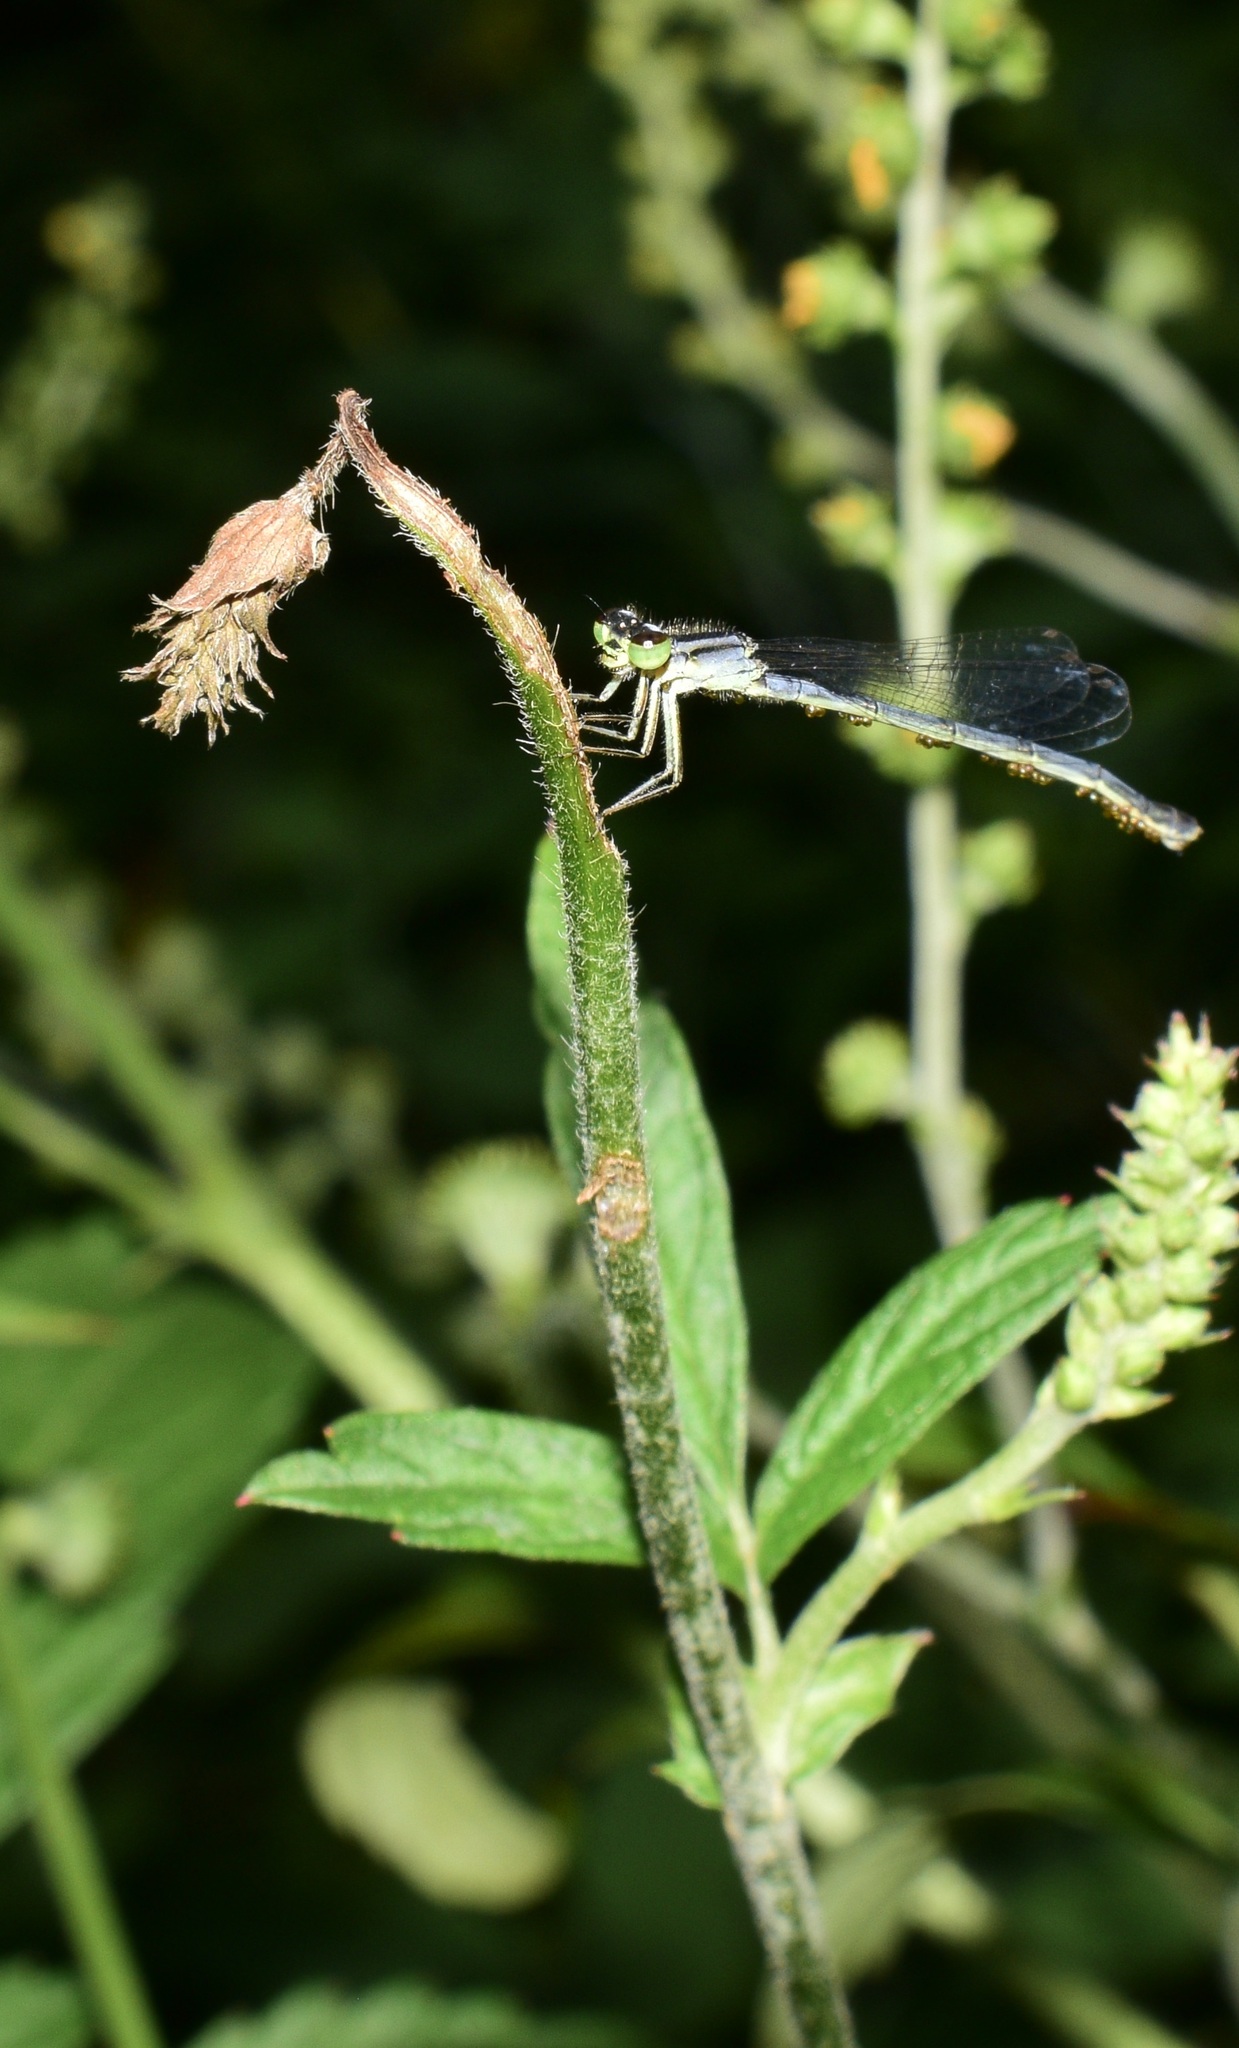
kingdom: Animalia
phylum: Arthropoda
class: Insecta
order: Odonata
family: Coenagrionidae
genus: Ischnura
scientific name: Ischnura verticalis
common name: Eastern forktail
